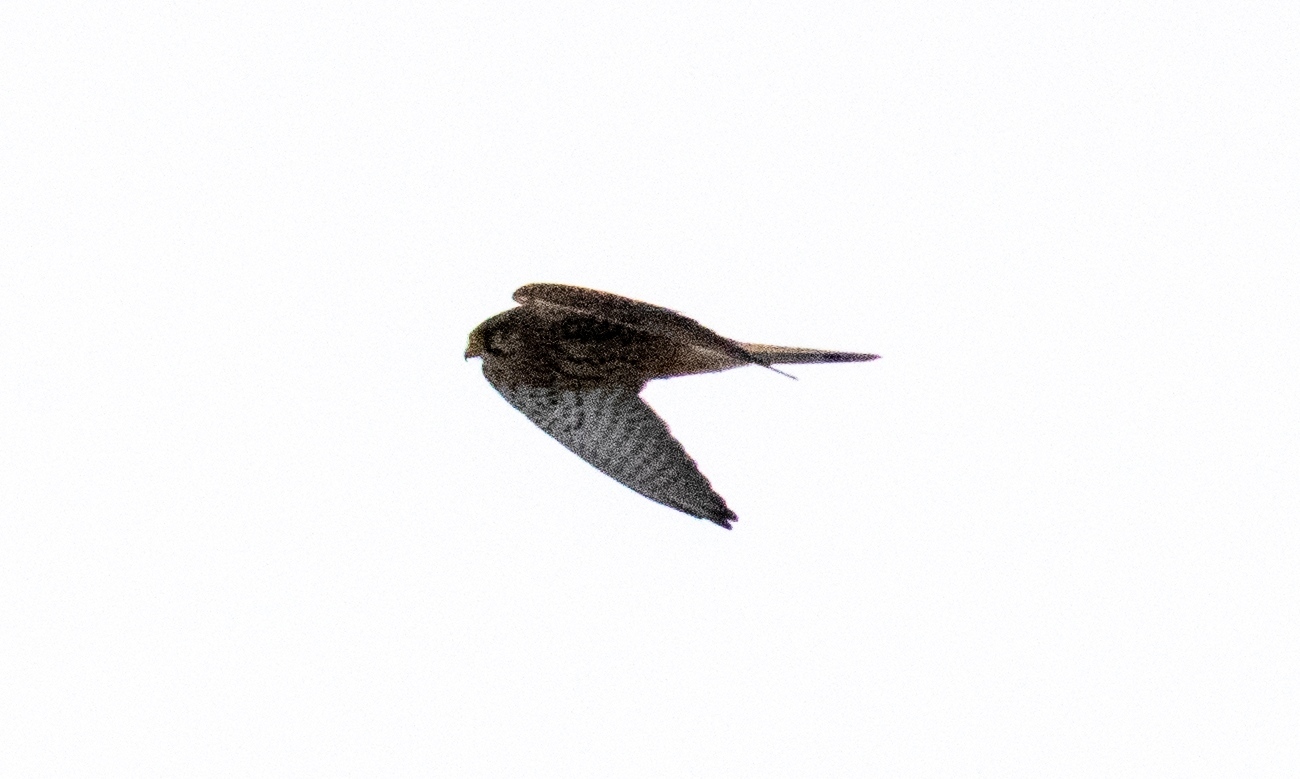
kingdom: Animalia
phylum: Chordata
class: Aves
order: Falconiformes
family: Falconidae
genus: Falco
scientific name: Falco tinnunculus
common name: Common kestrel
